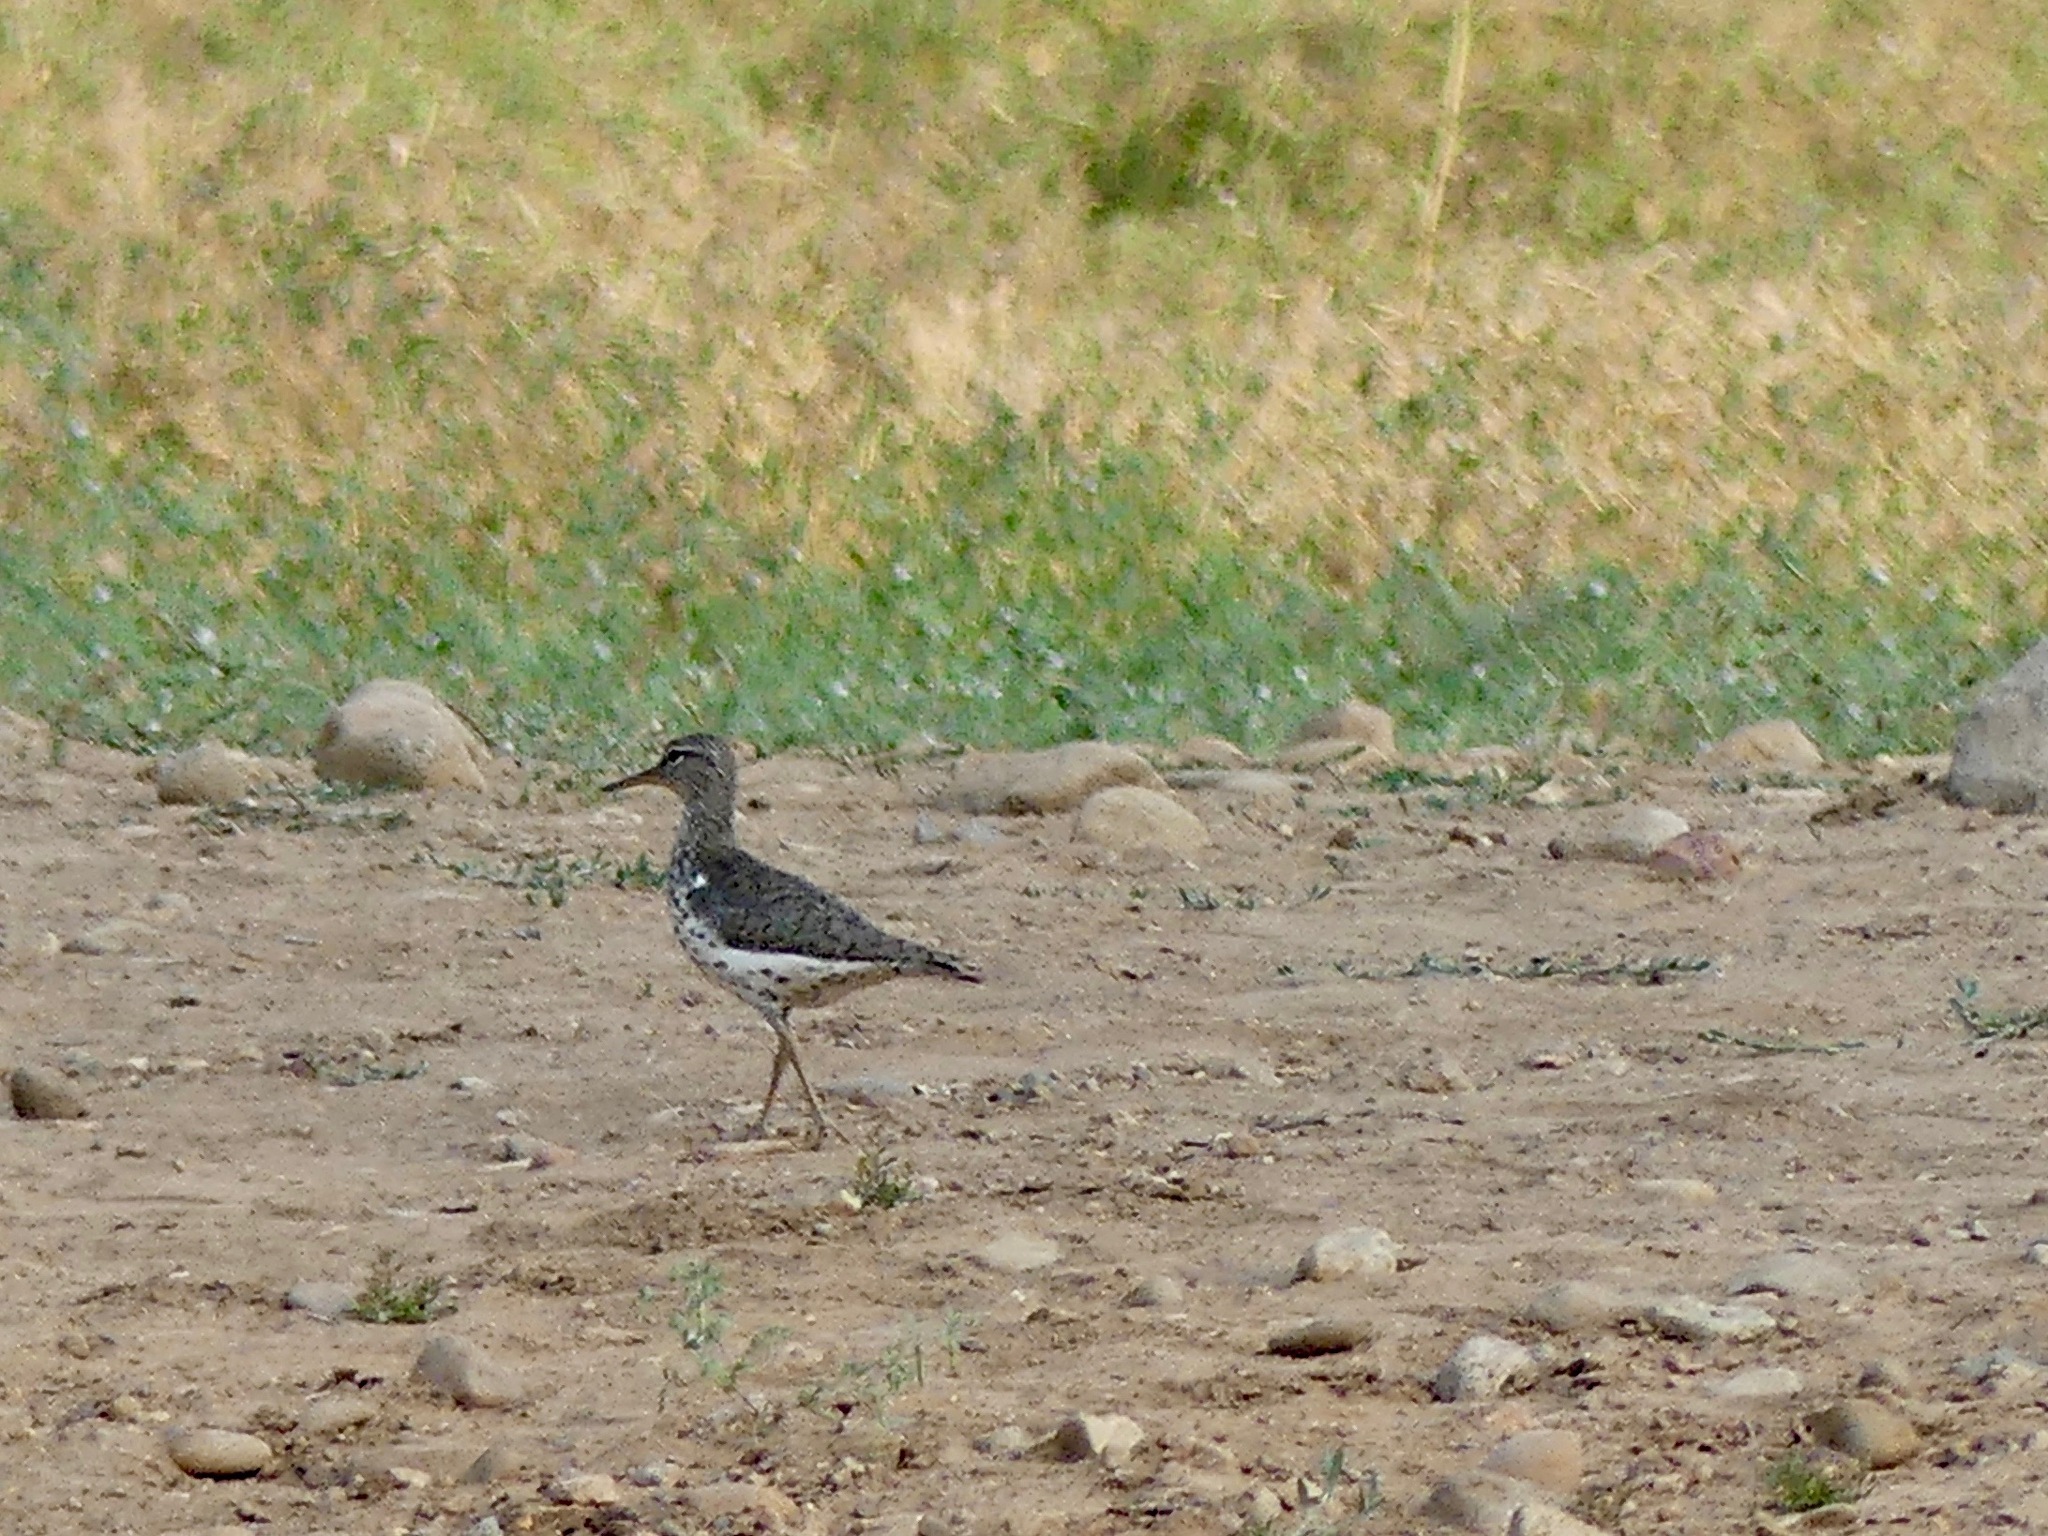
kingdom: Animalia
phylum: Chordata
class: Aves
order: Charadriiformes
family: Scolopacidae
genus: Actitis
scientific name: Actitis macularius
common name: Spotted sandpiper
